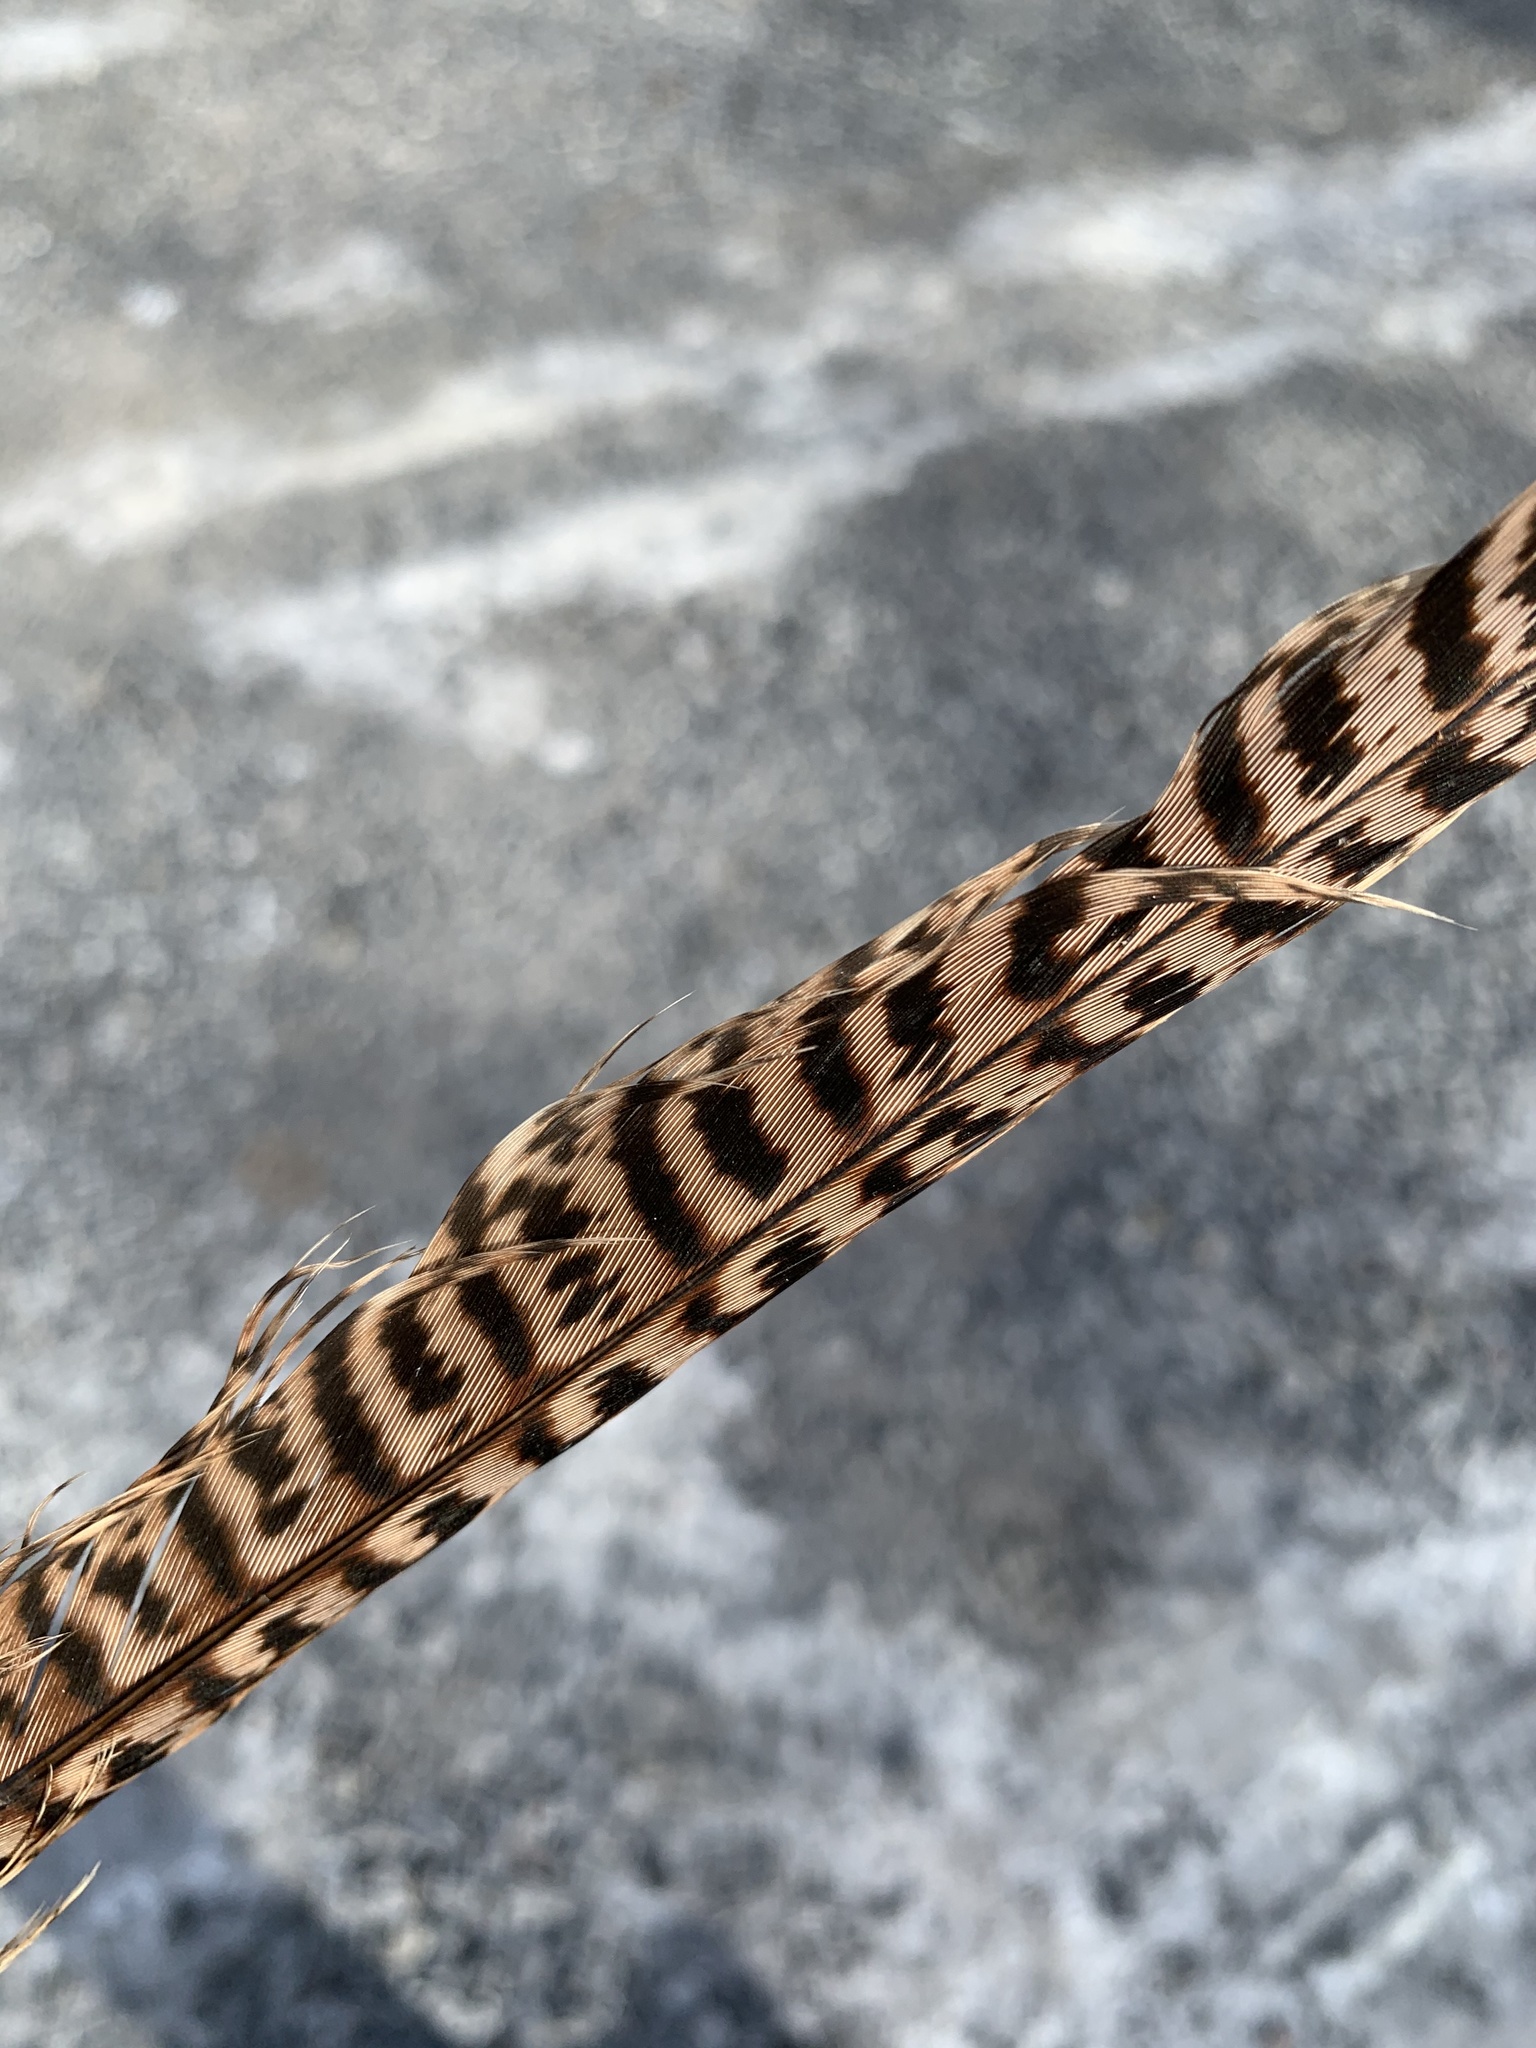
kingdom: Animalia
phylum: Chordata
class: Aves
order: Galliformes
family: Phasianidae
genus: Phasianus
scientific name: Phasianus colchicus
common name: Common pheasant
